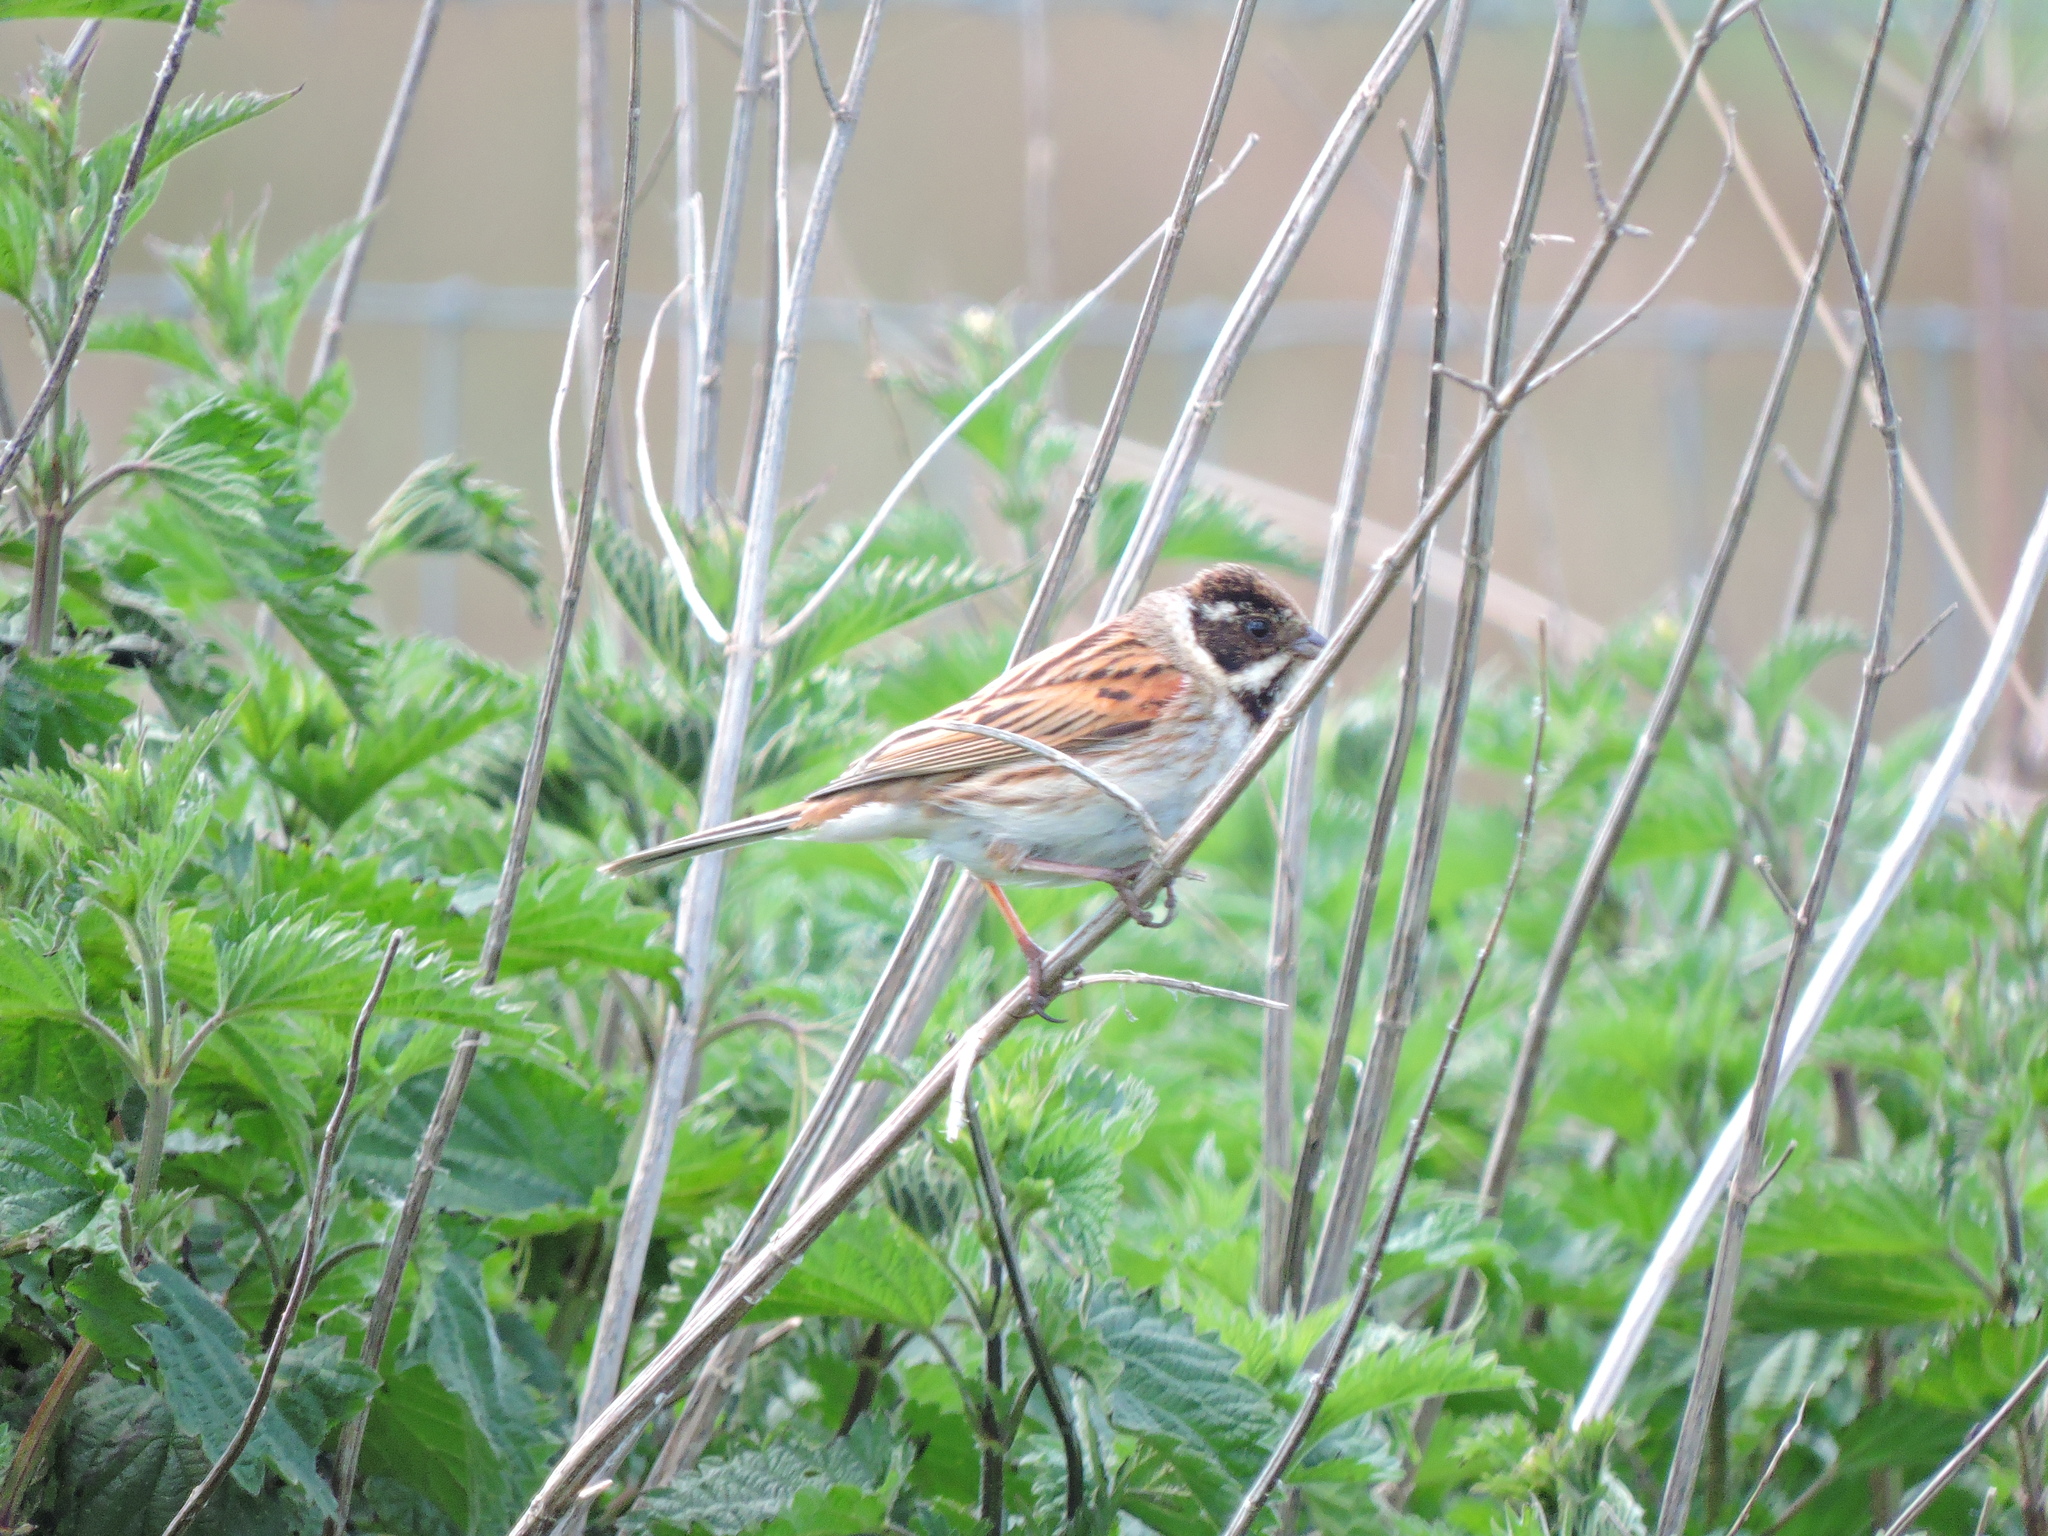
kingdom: Animalia
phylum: Chordata
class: Aves
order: Passeriformes
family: Emberizidae
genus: Emberiza
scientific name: Emberiza schoeniclus
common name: Reed bunting
